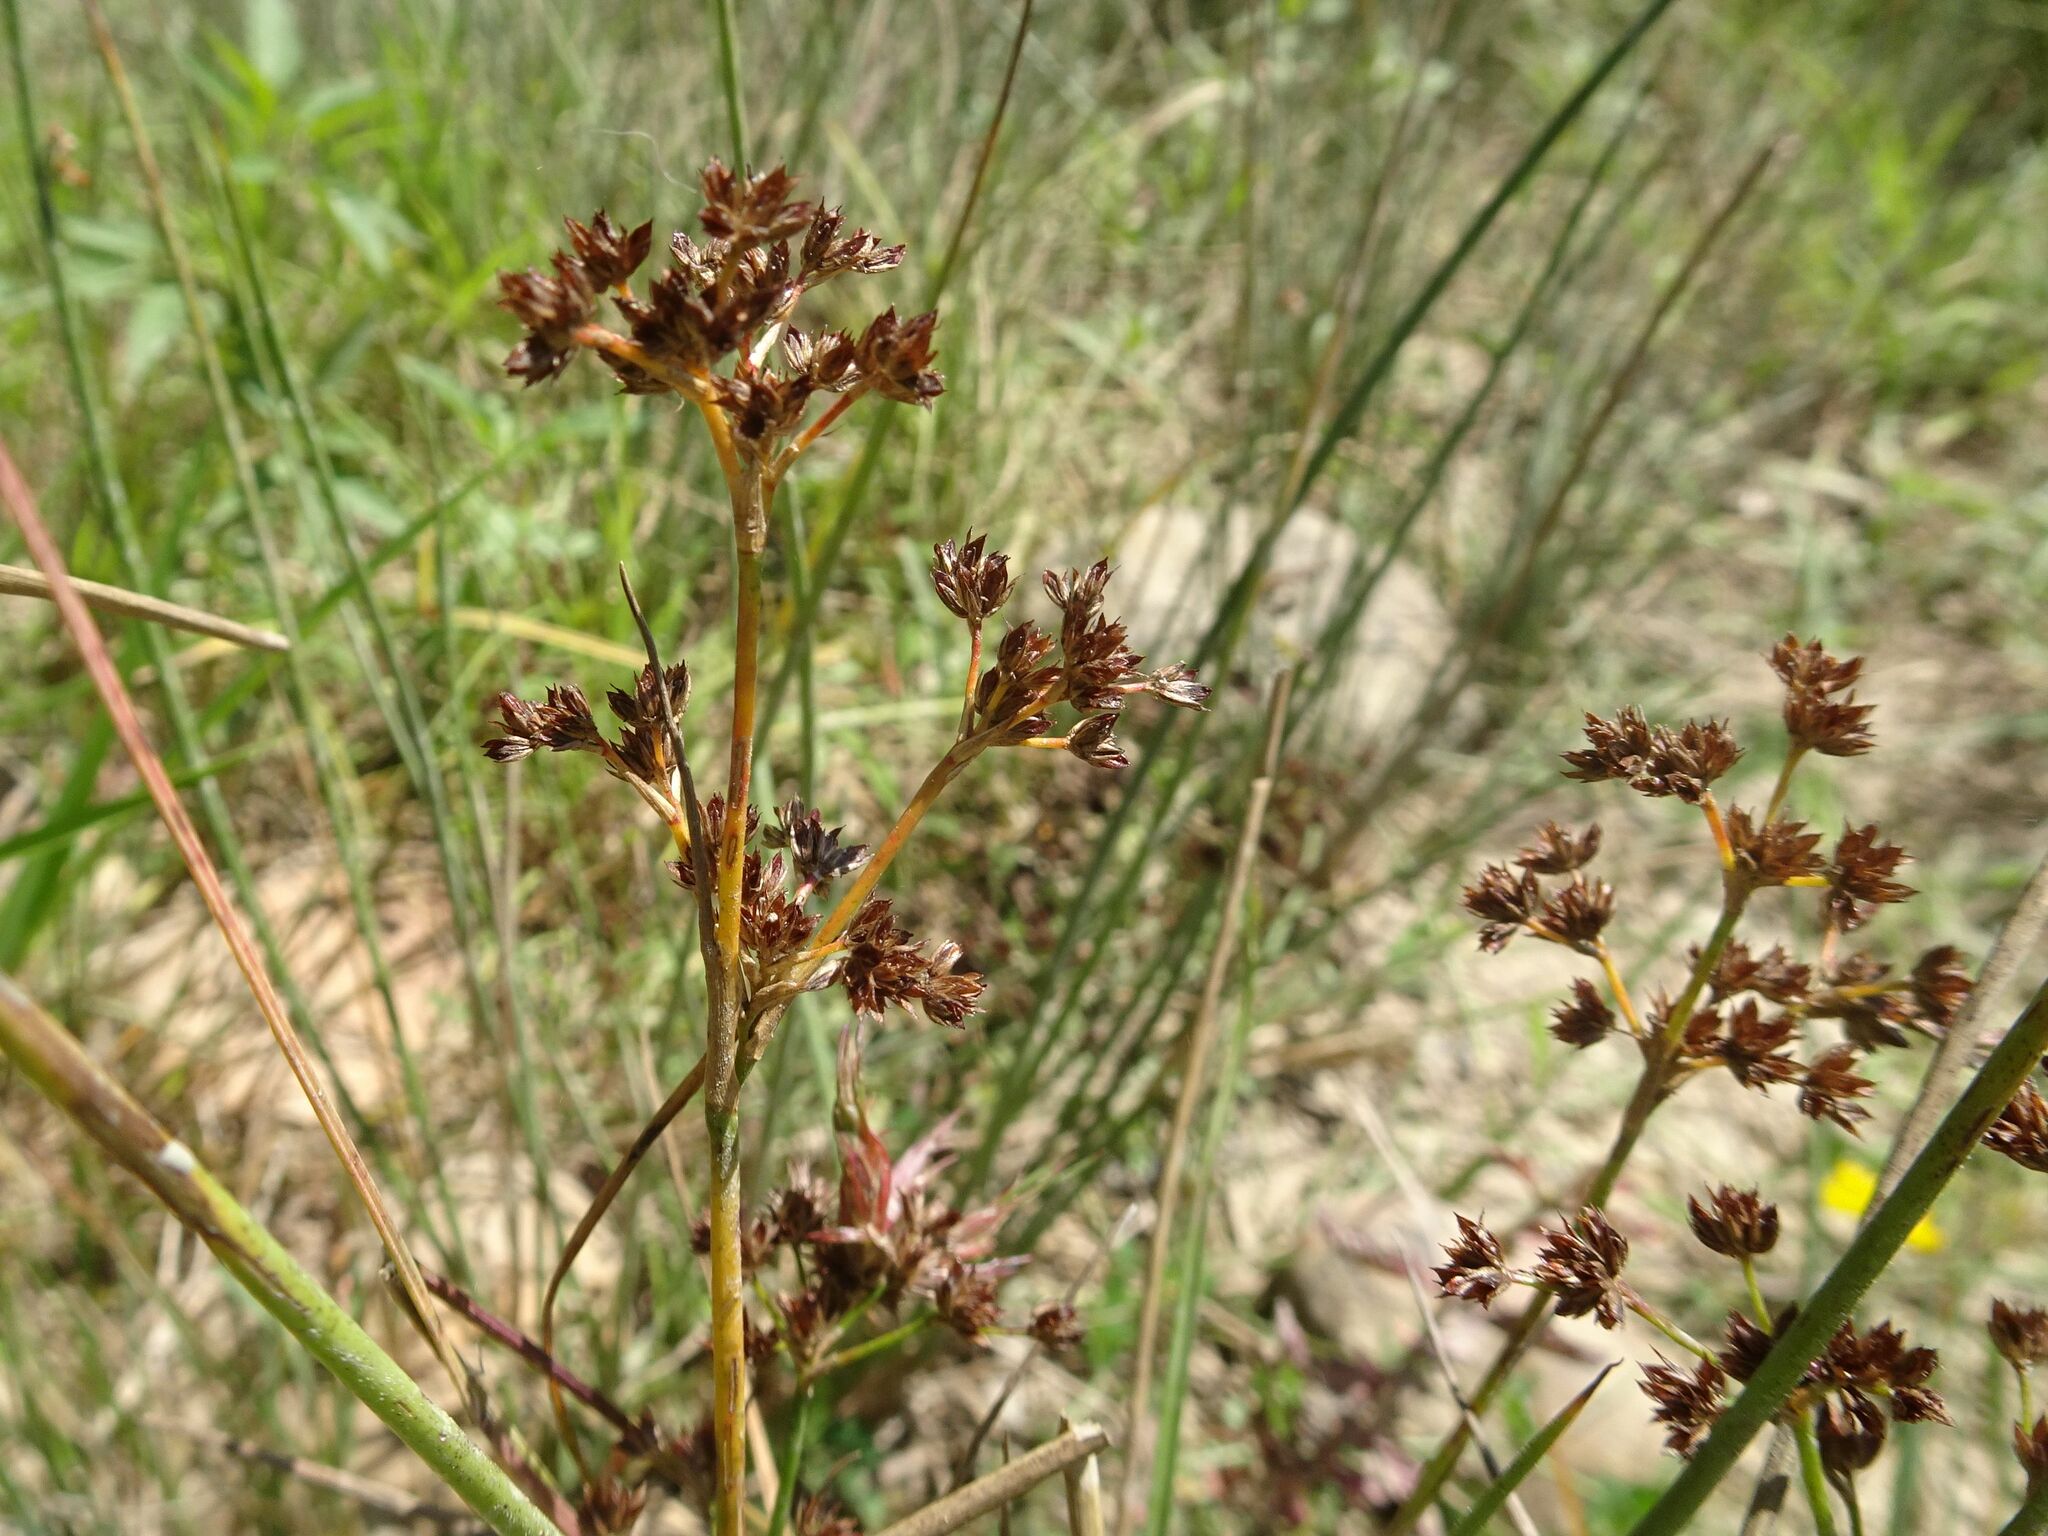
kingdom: Plantae
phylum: Tracheophyta
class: Liliopsida
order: Poales
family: Juncaceae
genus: Juncus
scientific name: Juncus articulatus
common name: Jointed rush
